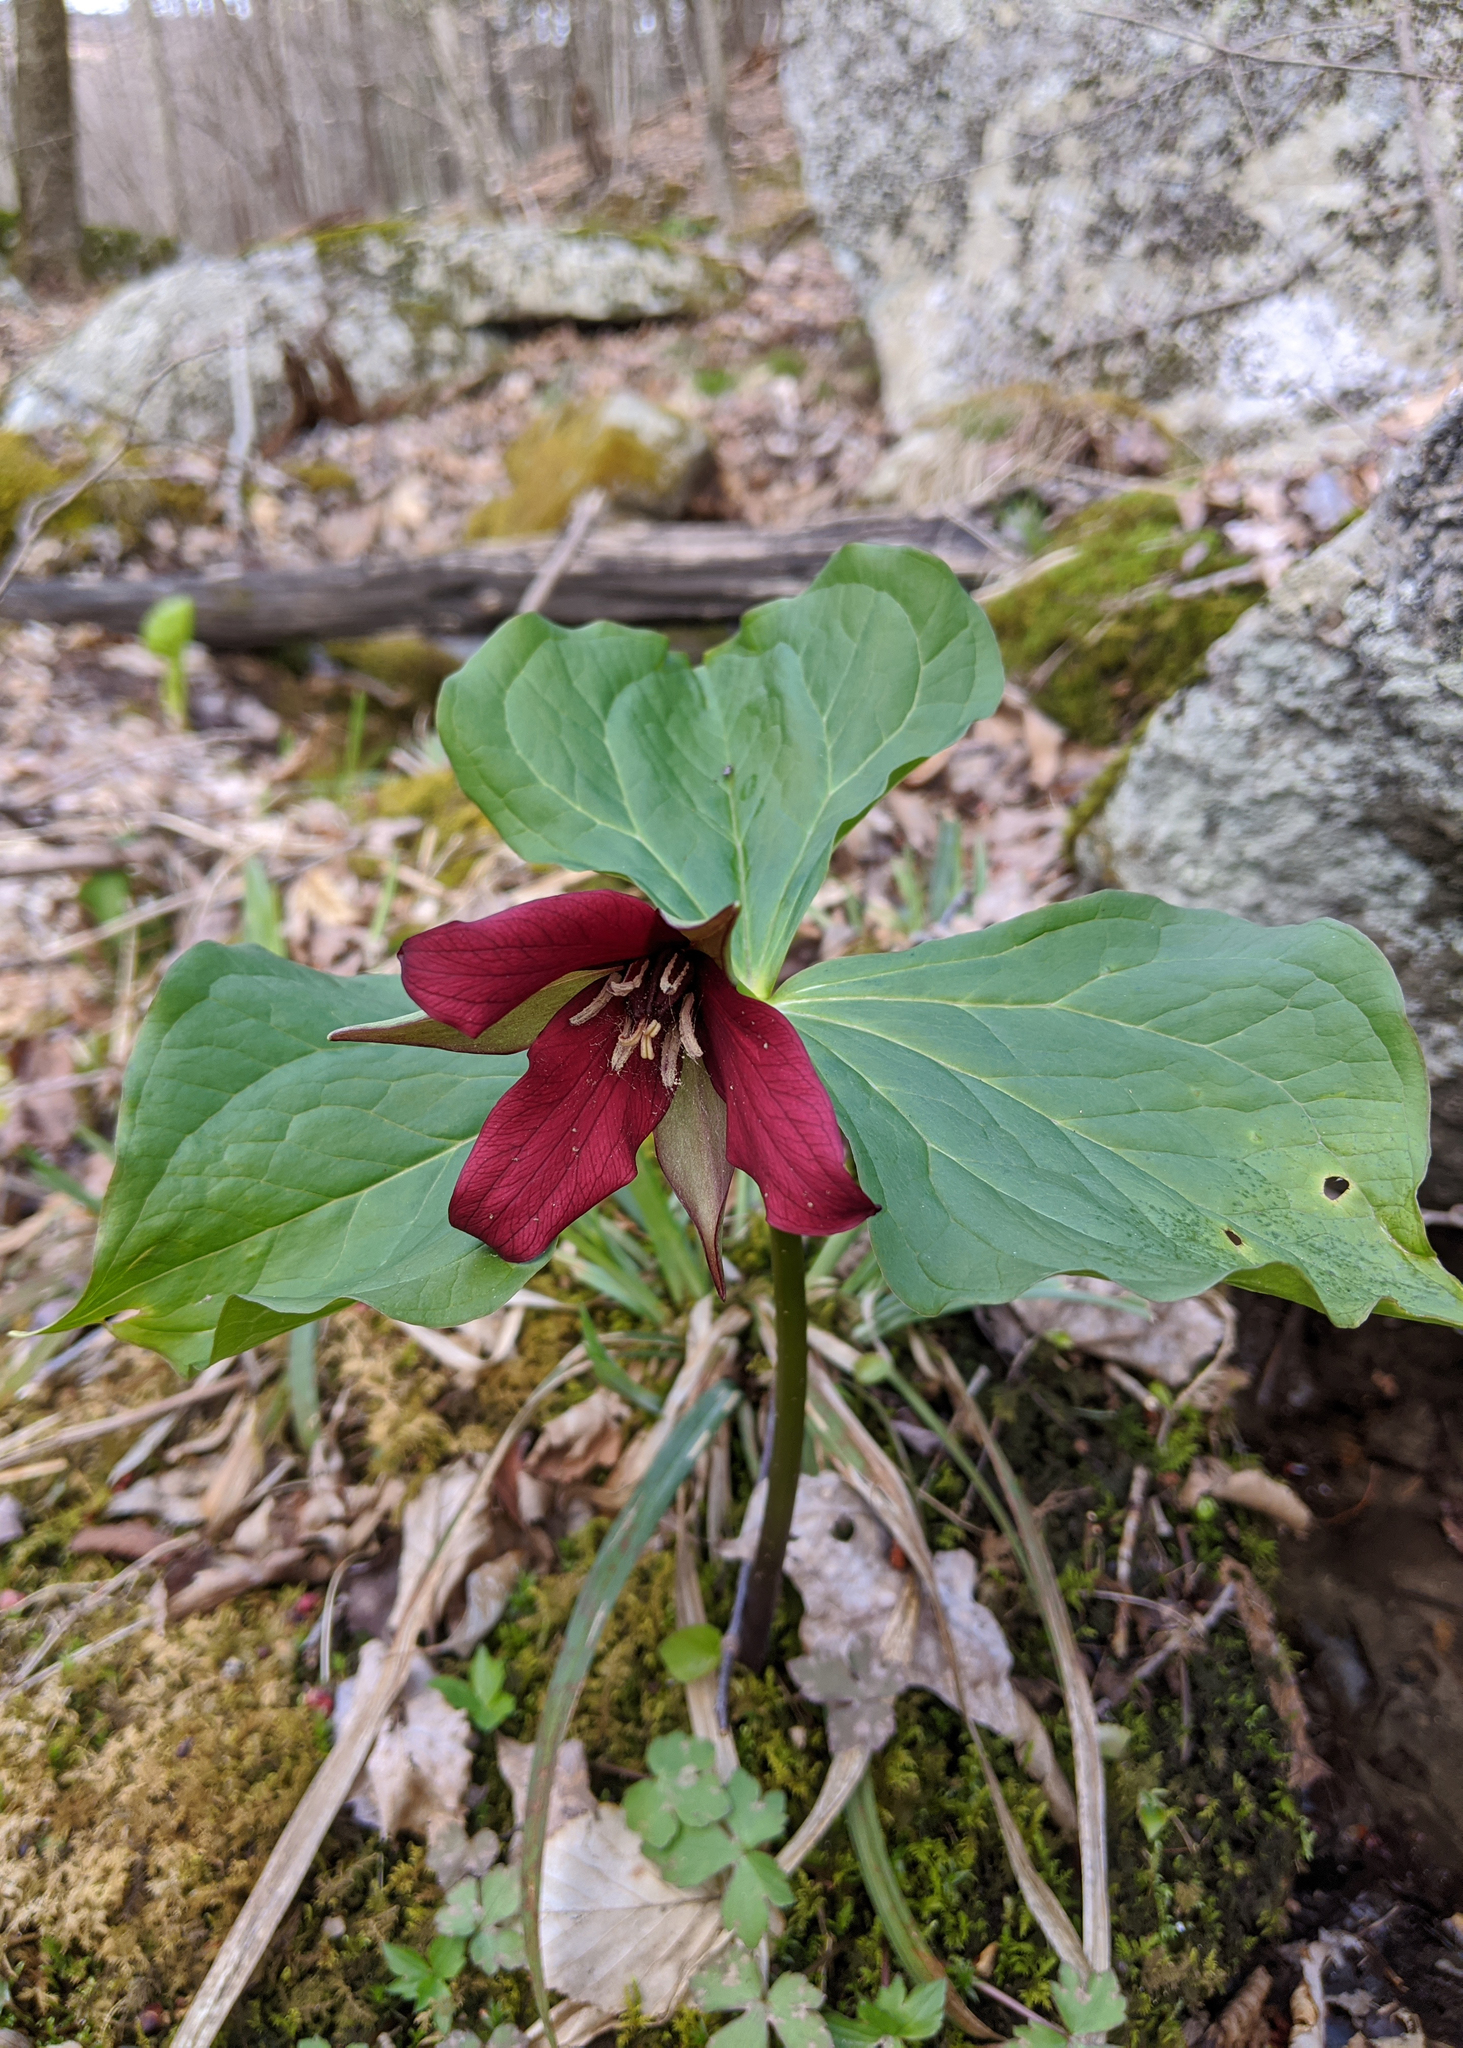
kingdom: Plantae
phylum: Tracheophyta
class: Liliopsida
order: Liliales
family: Melanthiaceae
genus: Trillium
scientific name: Trillium erectum
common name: Purple trillium
